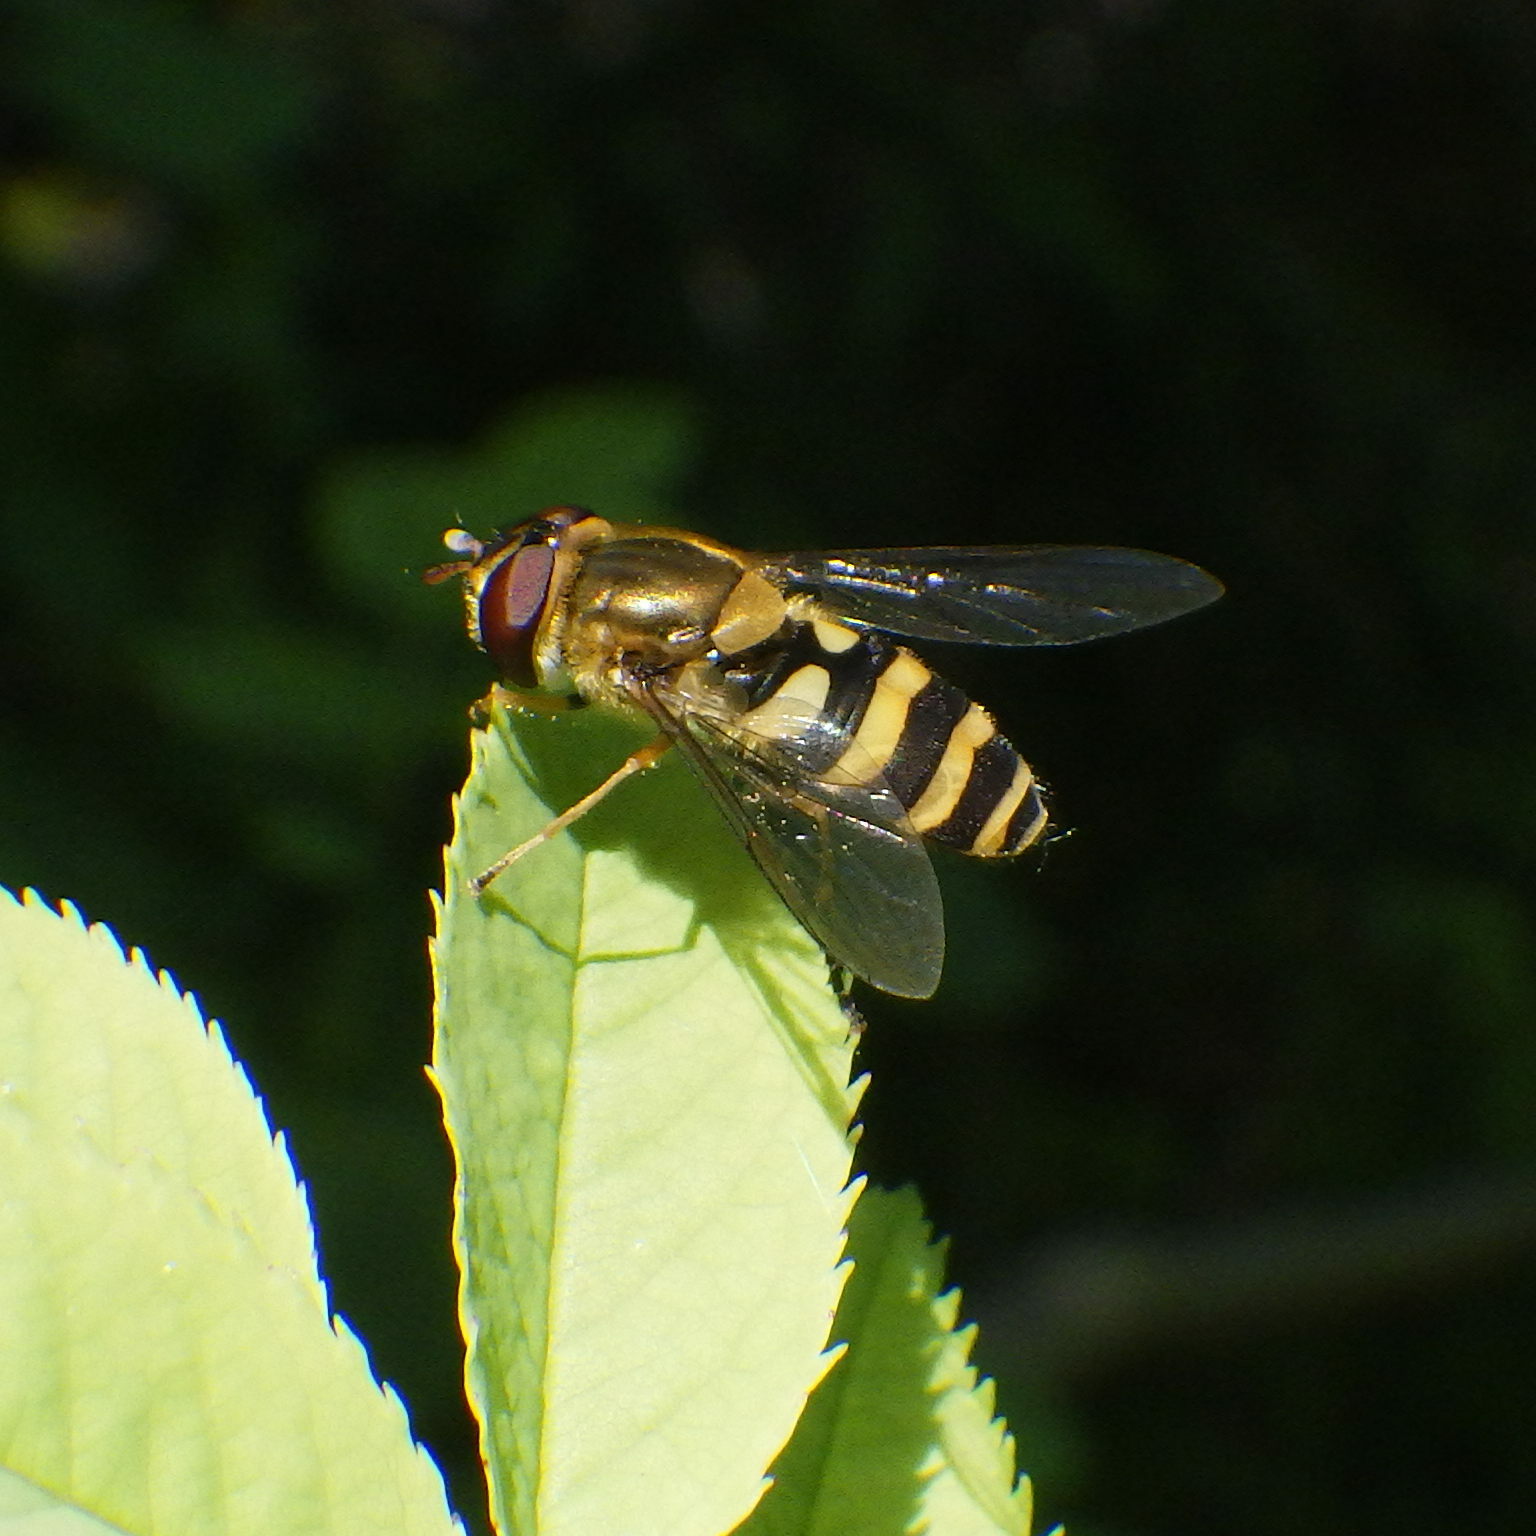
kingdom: Animalia
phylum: Arthropoda
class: Insecta
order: Diptera
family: Syrphidae
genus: Syrphus
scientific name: Syrphus
